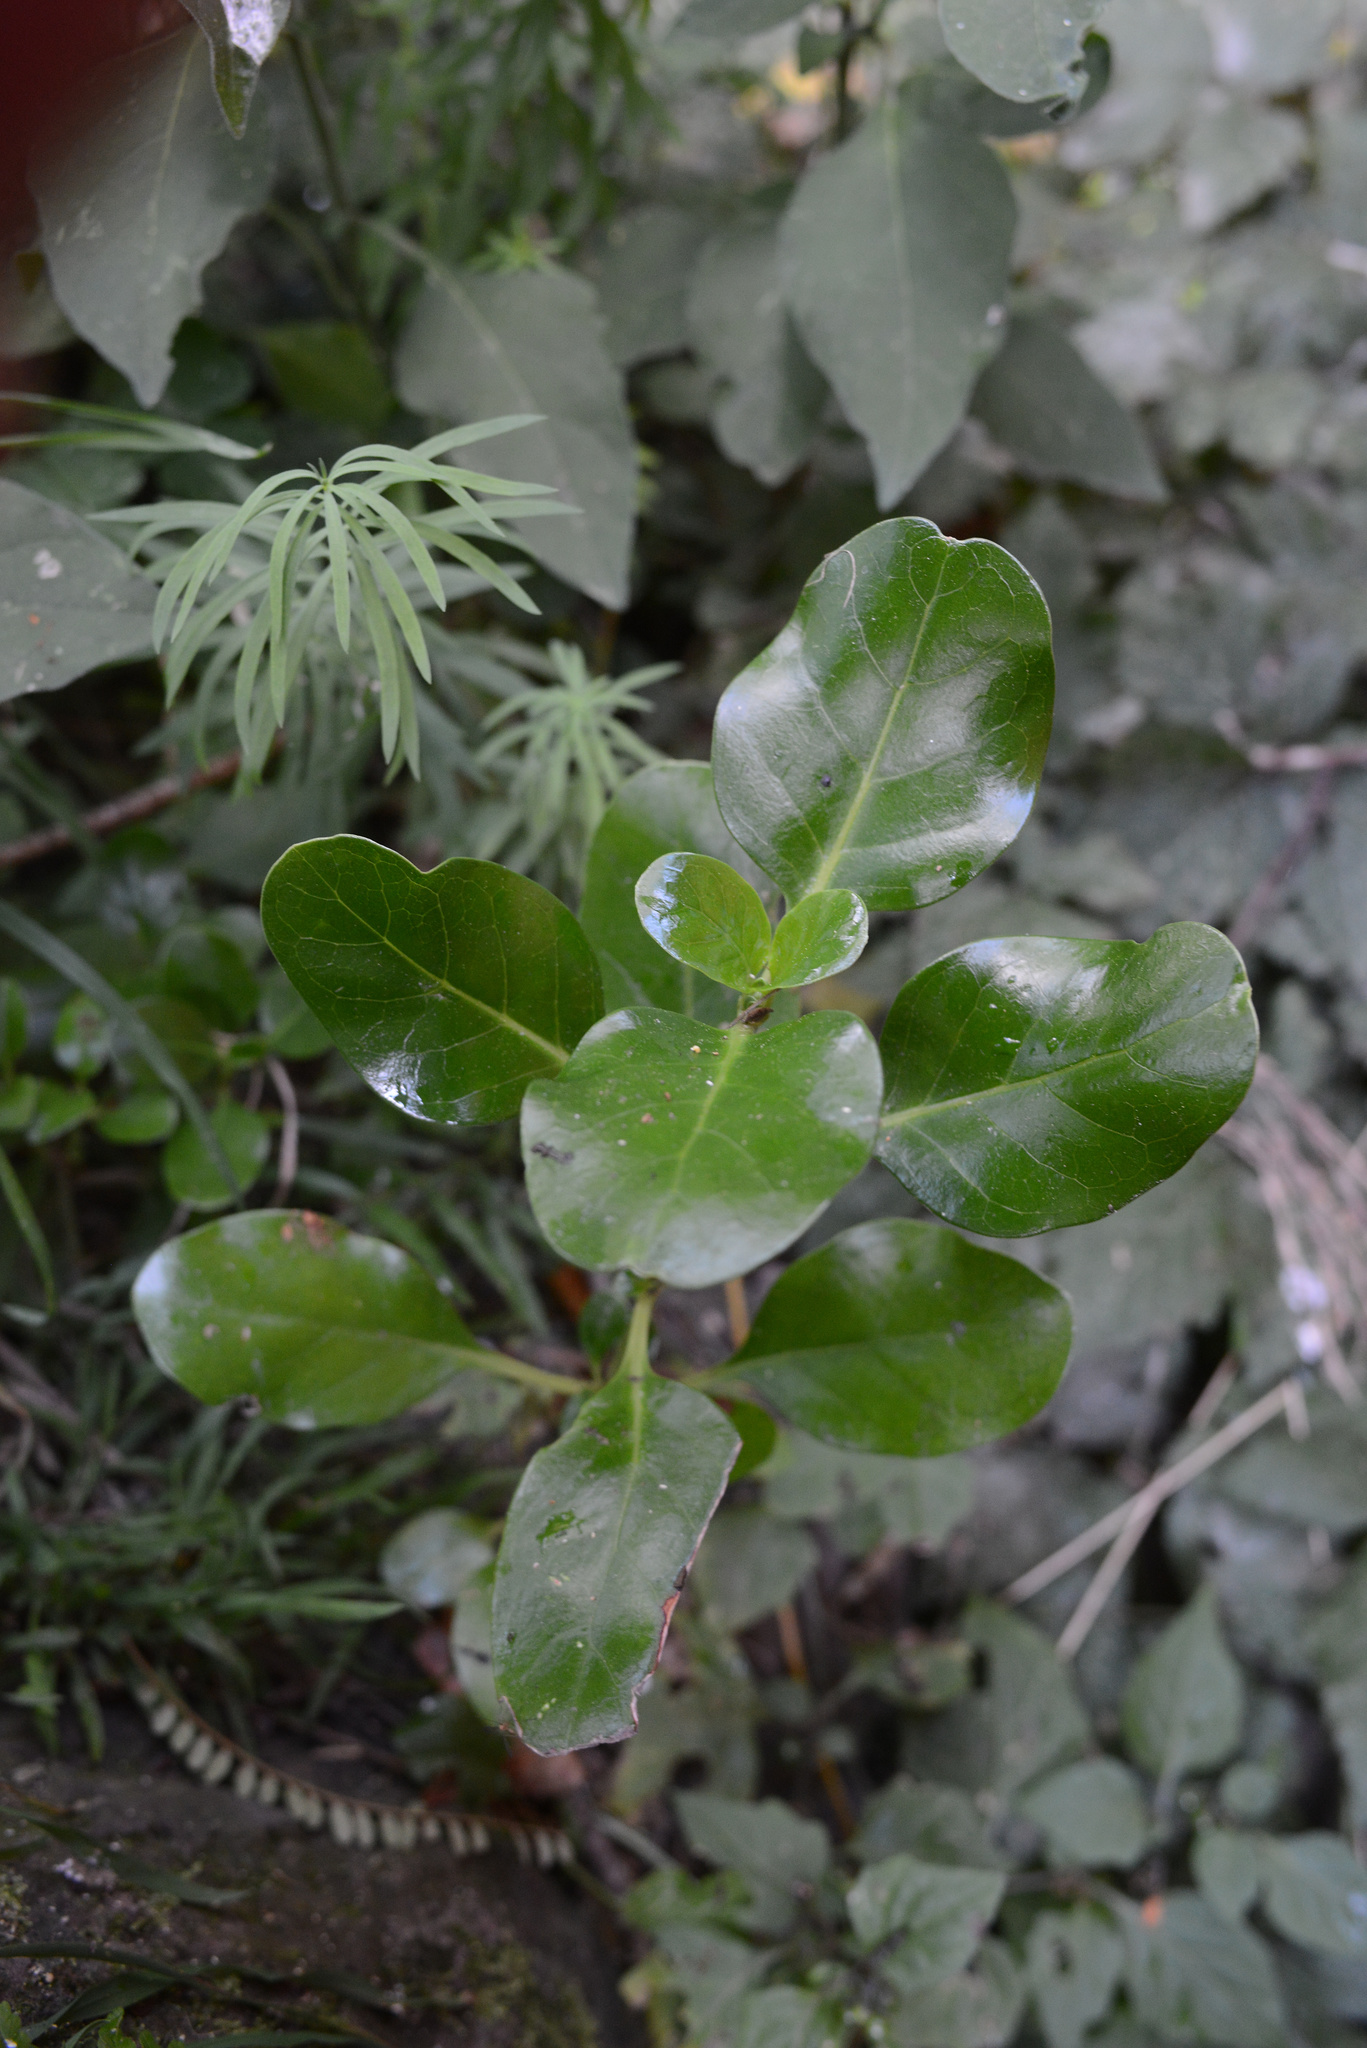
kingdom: Plantae
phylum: Tracheophyta
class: Magnoliopsida
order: Gentianales
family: Rubiaceae
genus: Coprosma
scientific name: Coprosma repens
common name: Tree bedstraw
